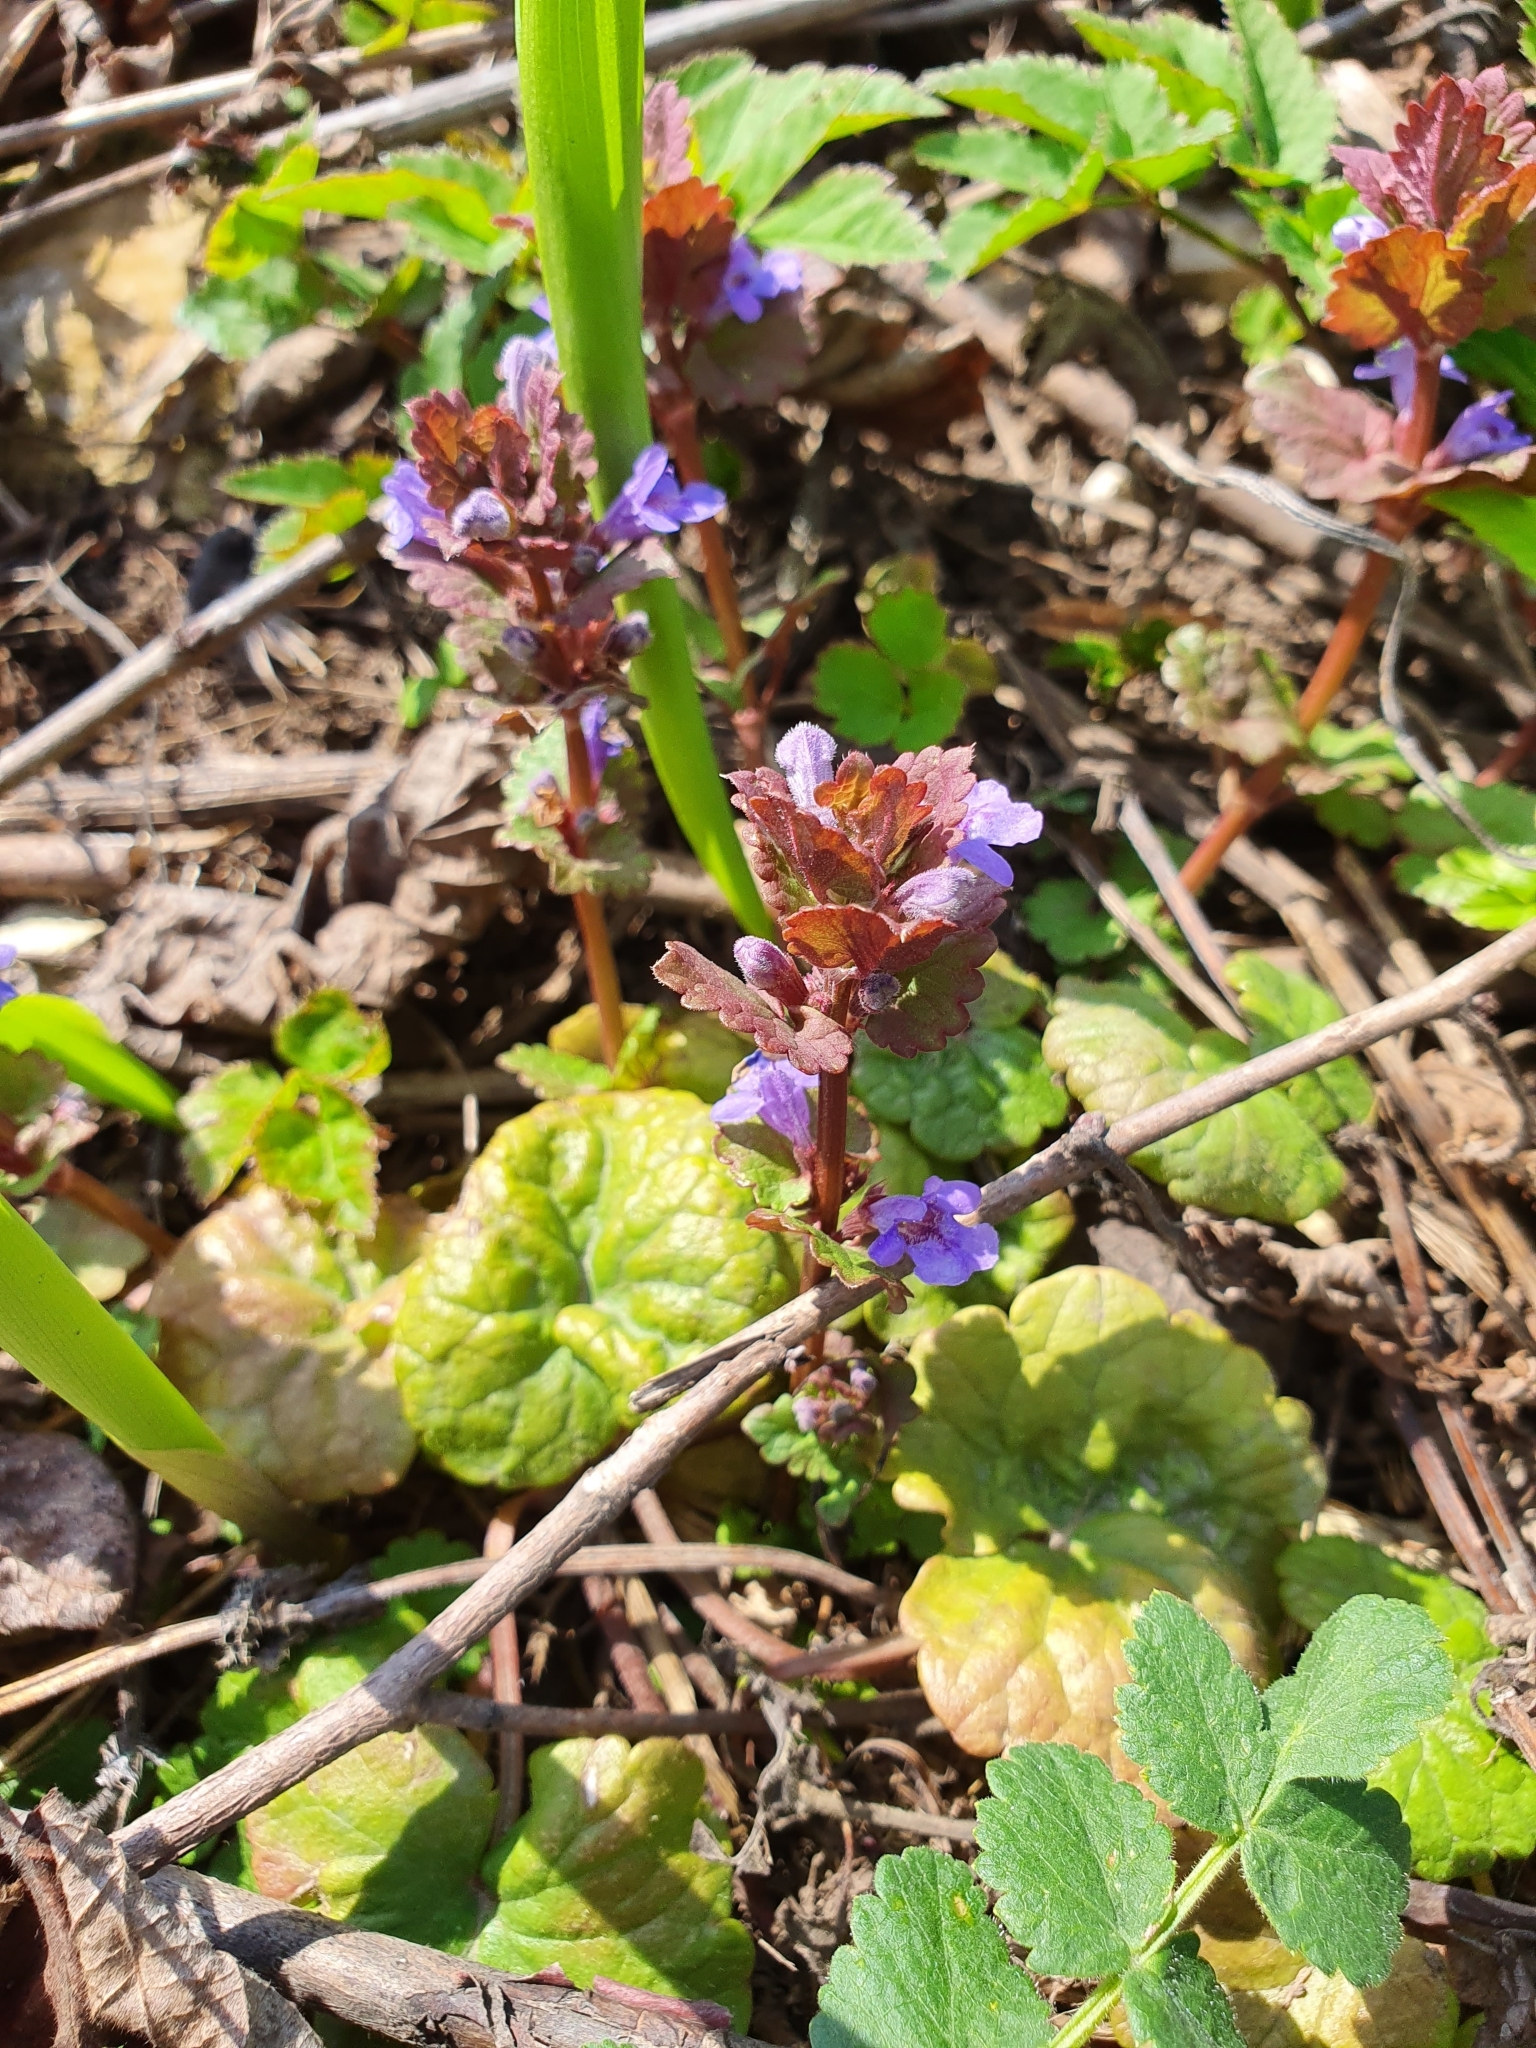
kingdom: Plantae
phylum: Tracheophyta
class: Magnoliopsida
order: Lamiales
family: Lamiaceae
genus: Glechoma
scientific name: Glechoma hederacea
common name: Ground ivy
